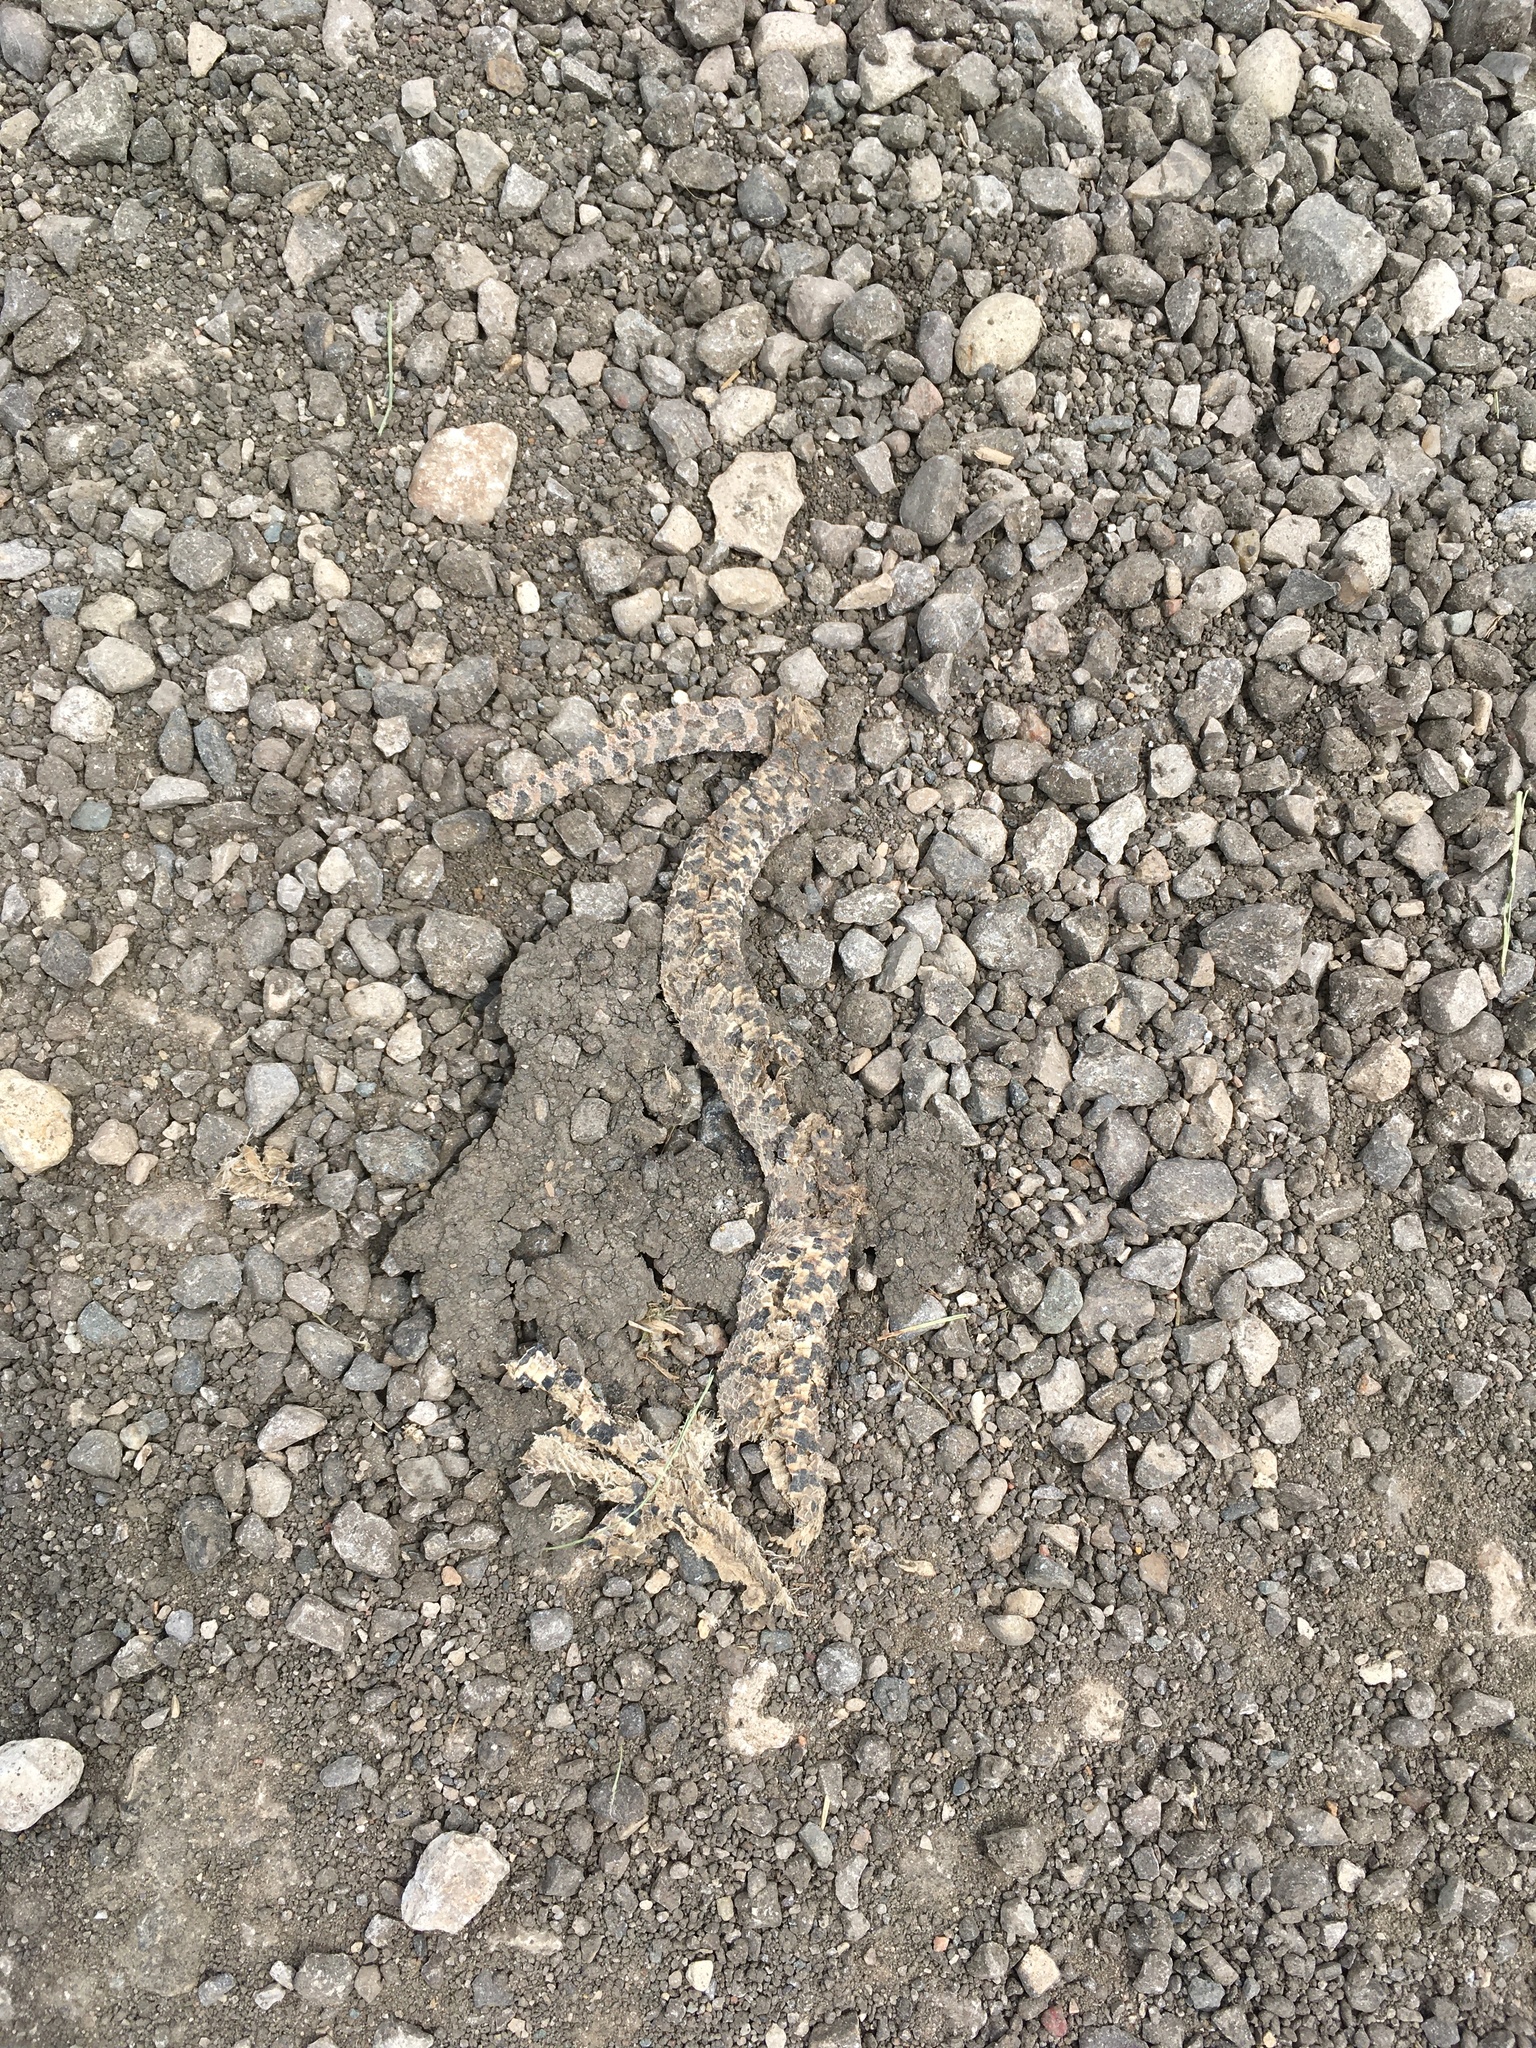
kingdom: Animalia
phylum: Chordata
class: Squamata
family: Colubridae
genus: Pantherophis
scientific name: Pantherophis vulpinus
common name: Eastern fox snake
